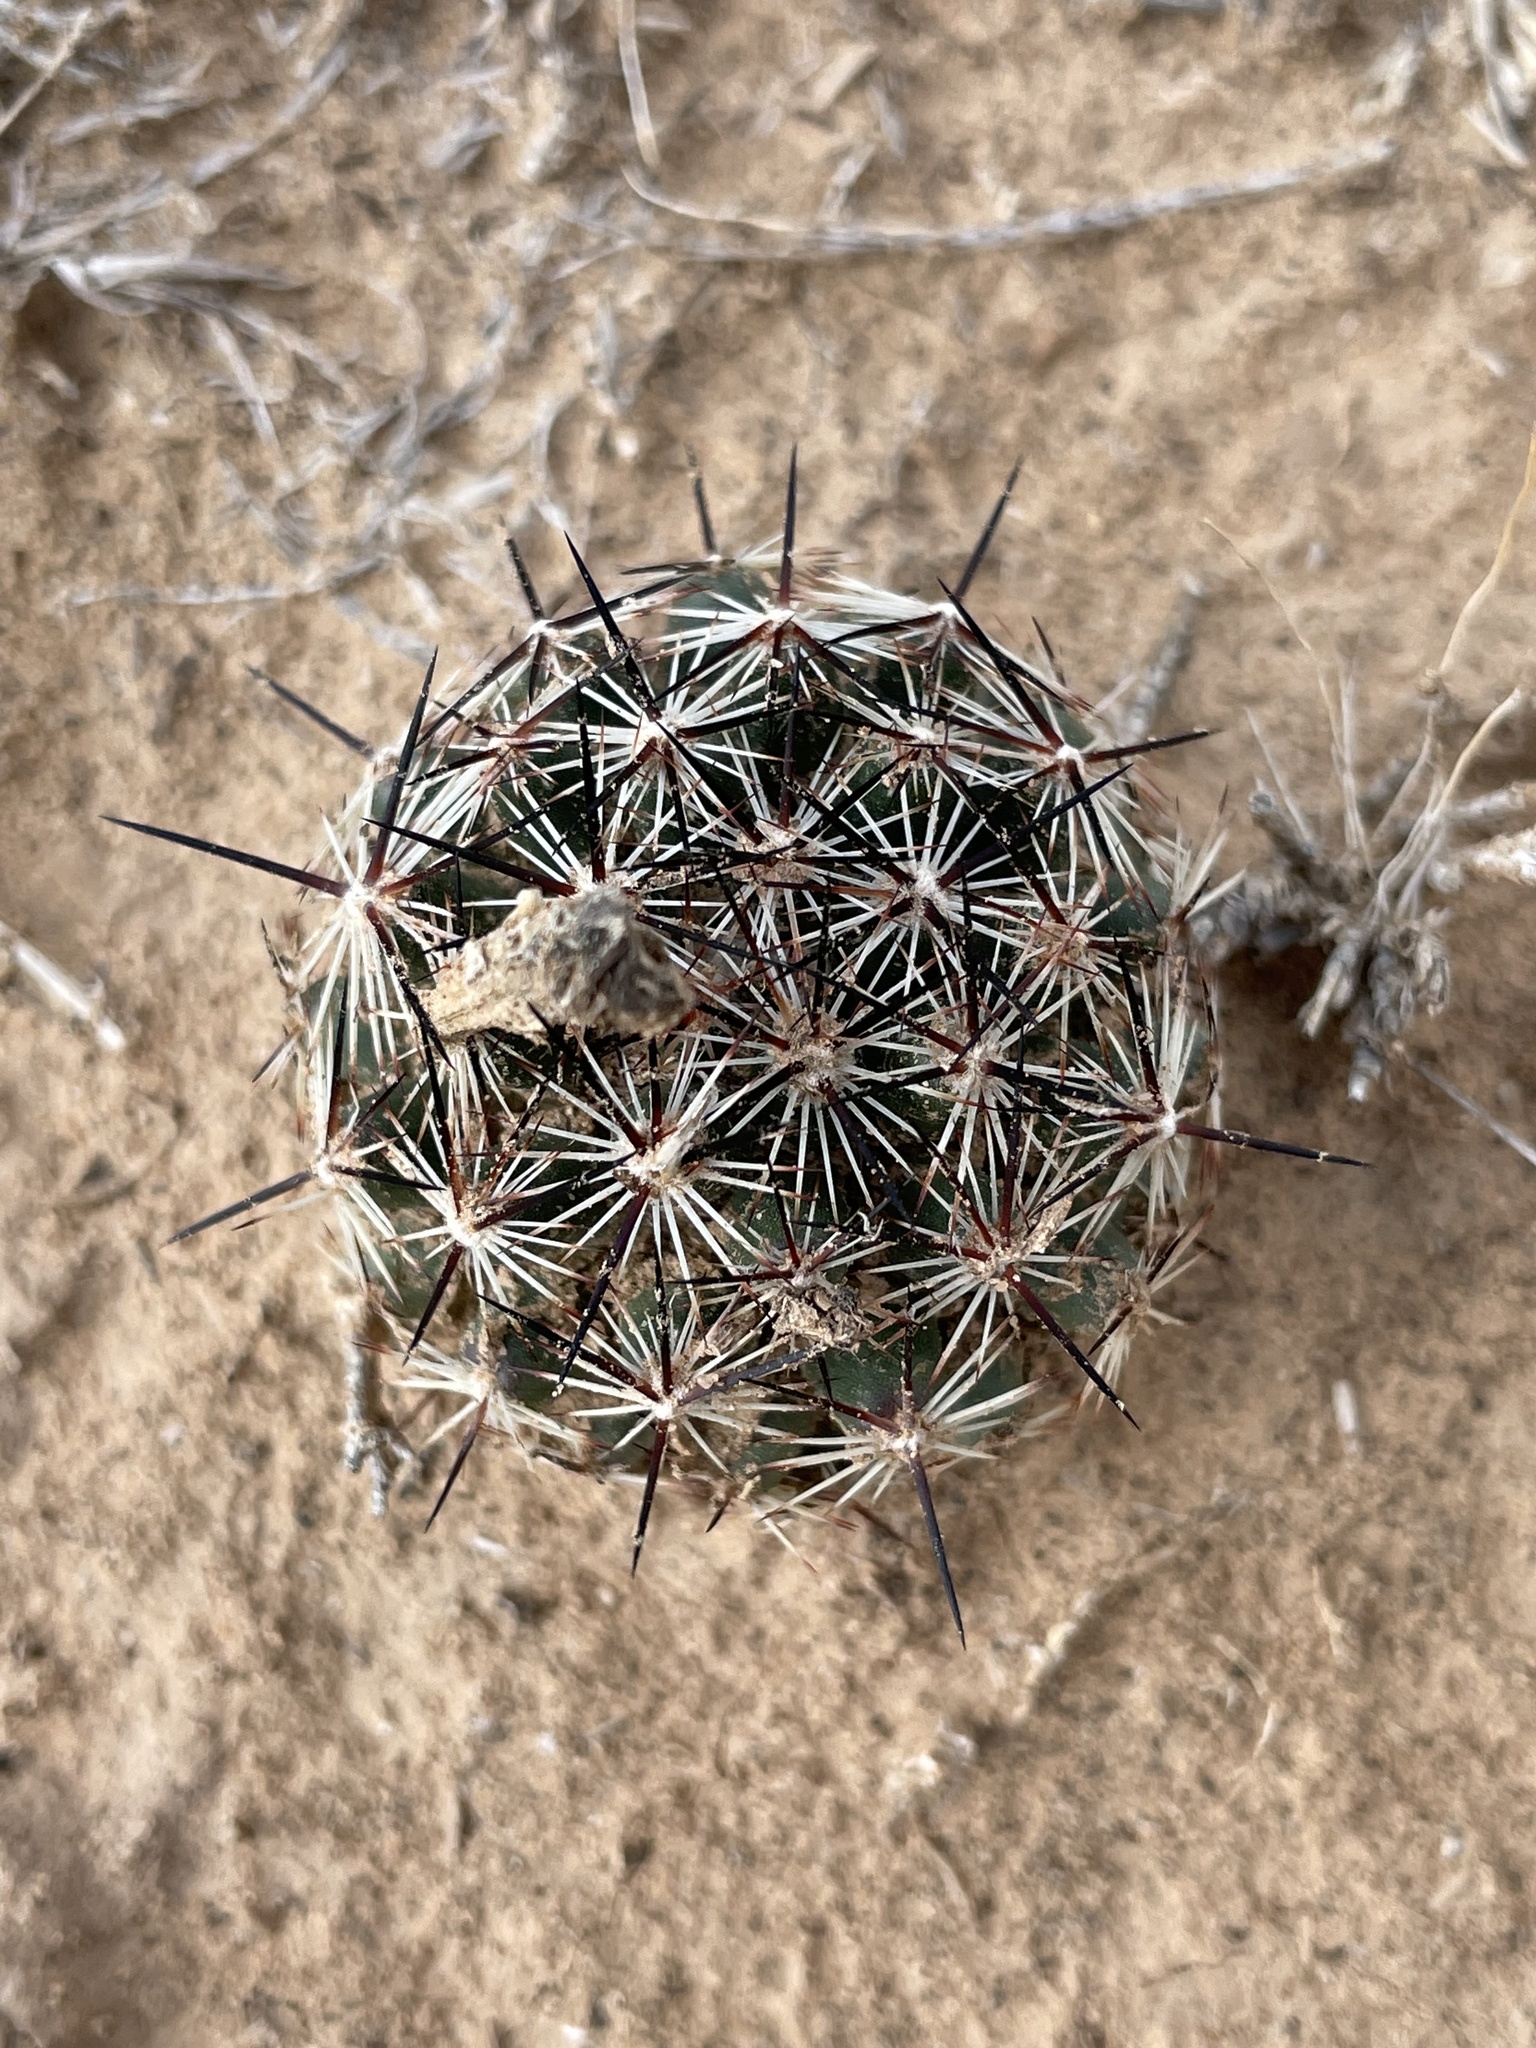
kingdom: Plantae
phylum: Tracheophyta
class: Magnoliopsida
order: Caryophyllales
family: Cactaceae
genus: Pelecyphora
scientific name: Pelecyphora vivipara
